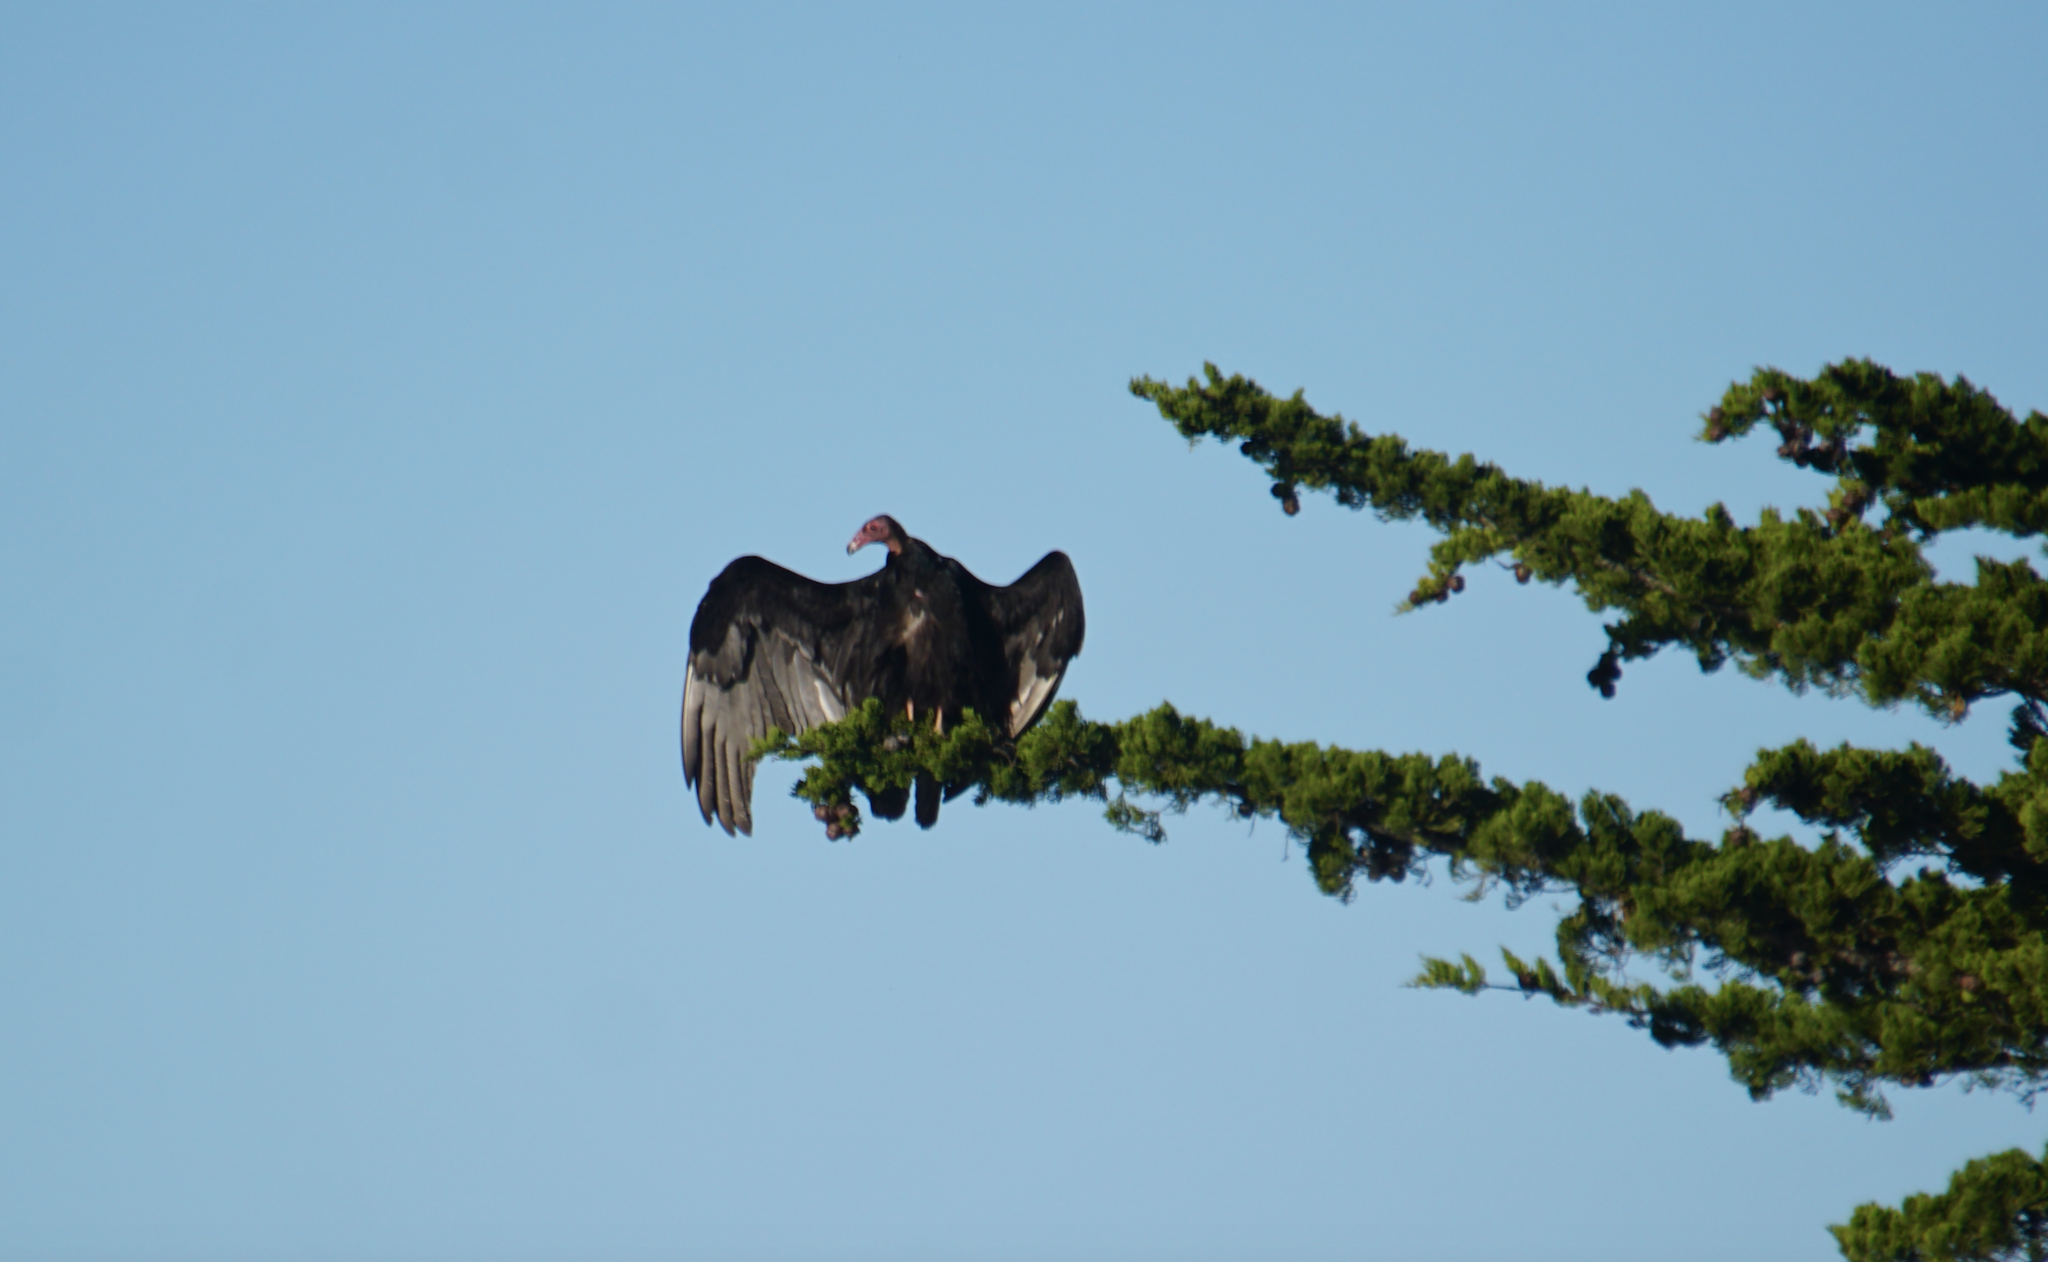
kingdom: Animalia
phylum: Chordata
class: Aves
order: Accipitriformes
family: Cathartidae
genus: Cathartes
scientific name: Cathartes aura
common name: Turkey vulture
